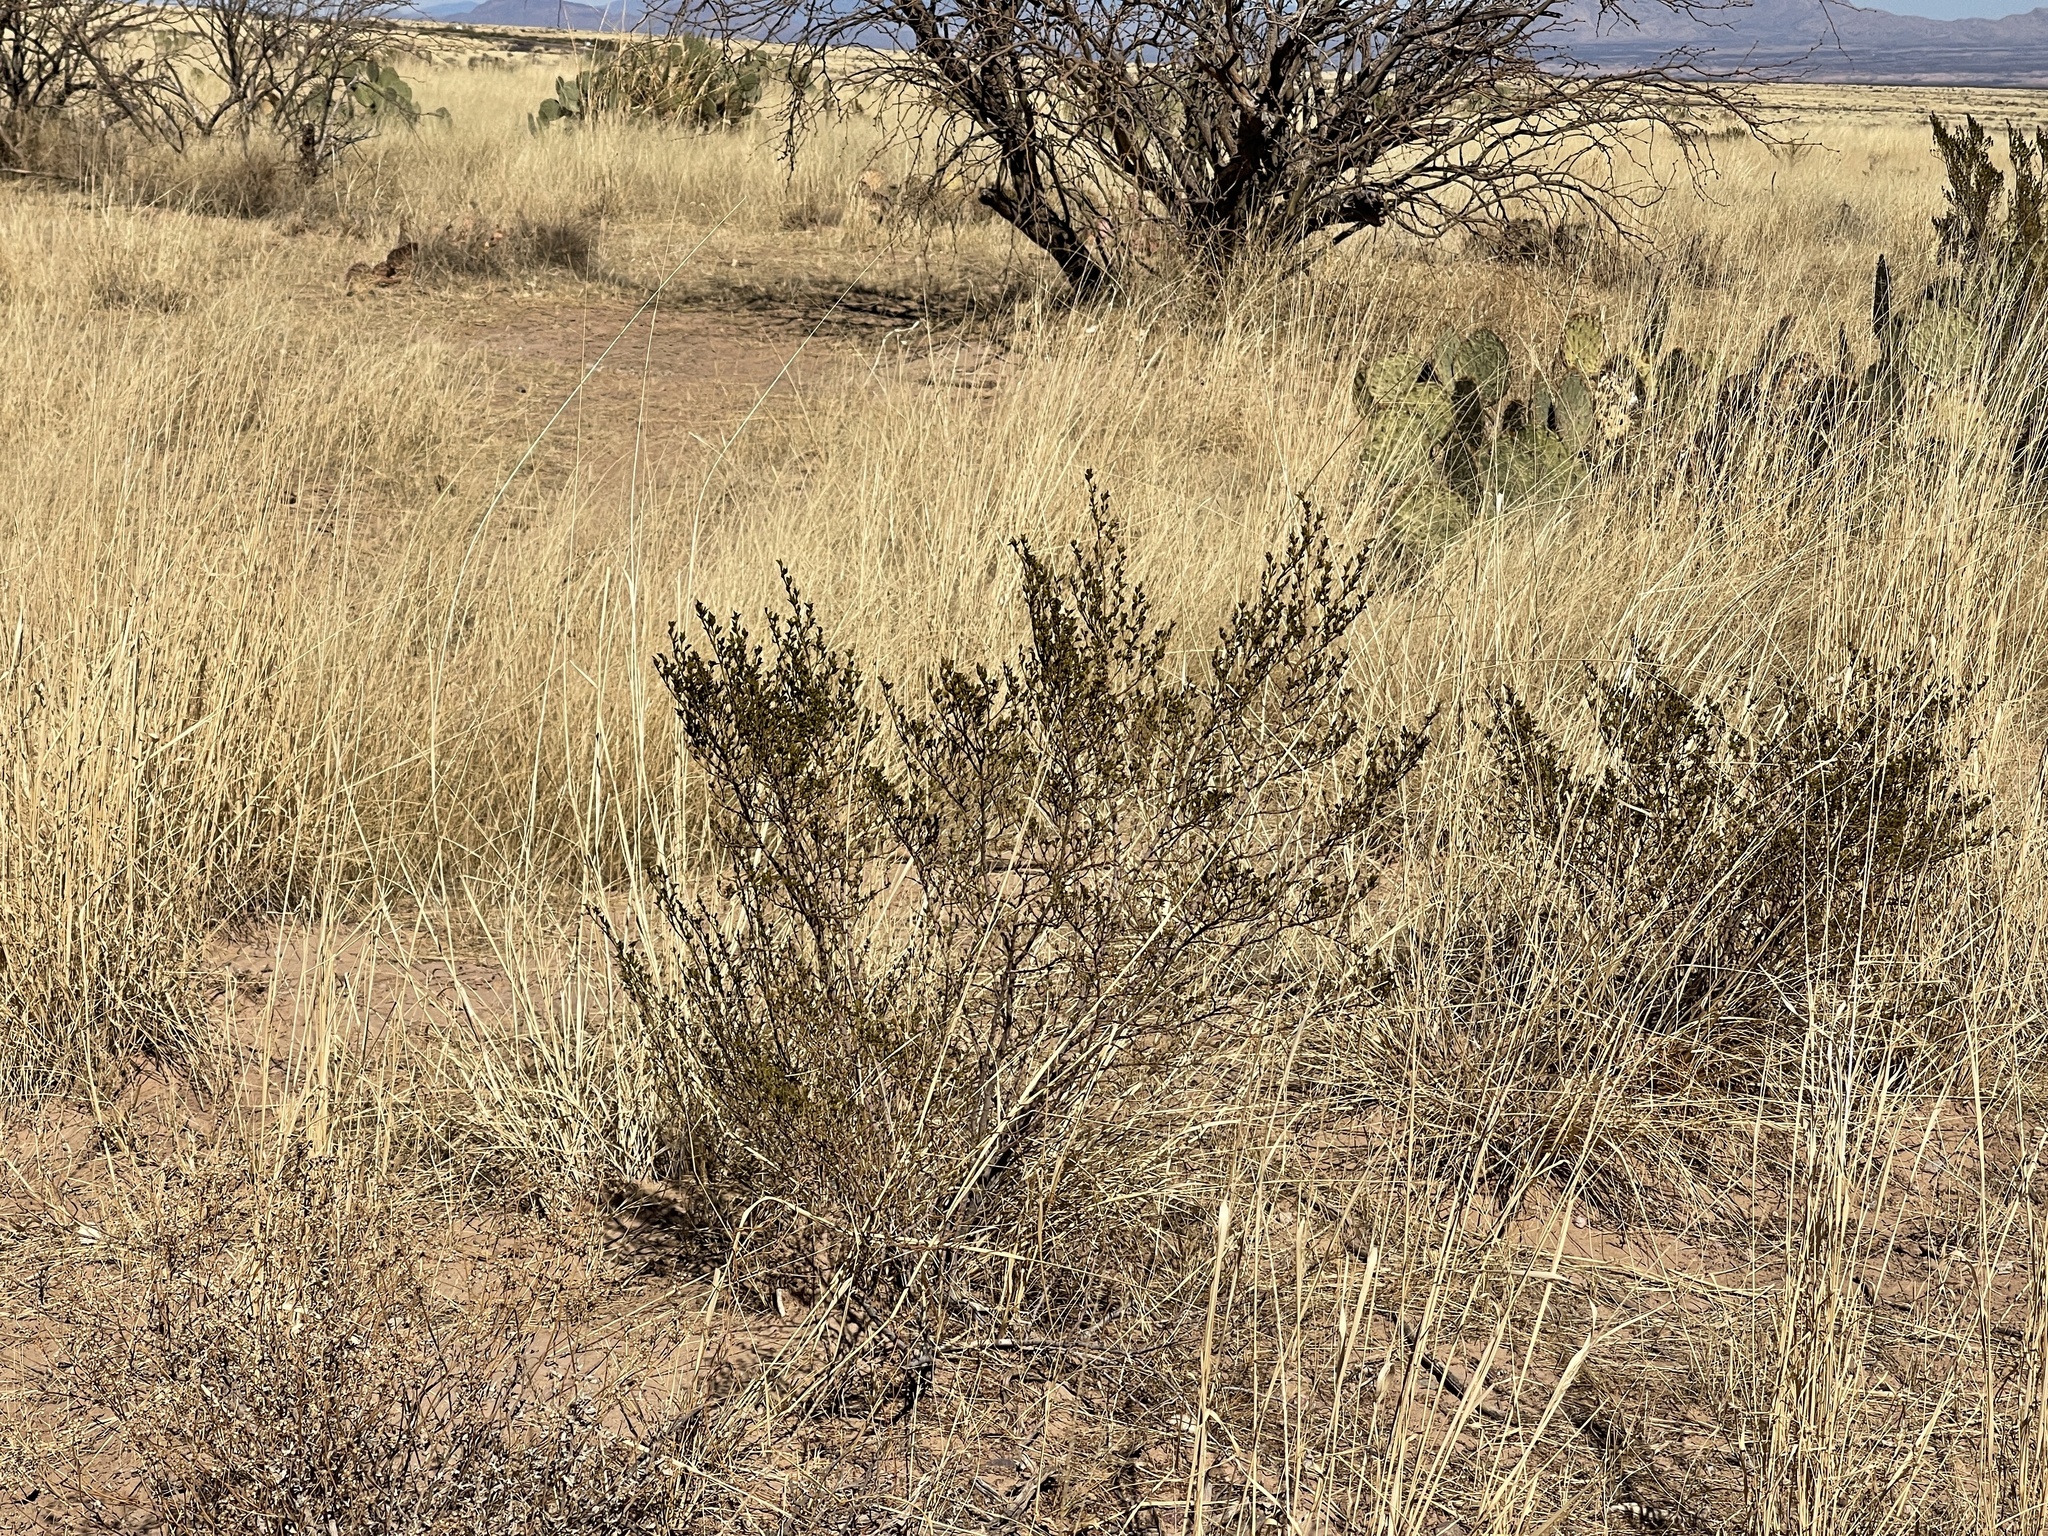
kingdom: Plantae
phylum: Tracheophyta
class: Magnoliopsida
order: Zygophyllales
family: Zygophyllaceae
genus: Larrea
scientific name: Larrea tridentata
